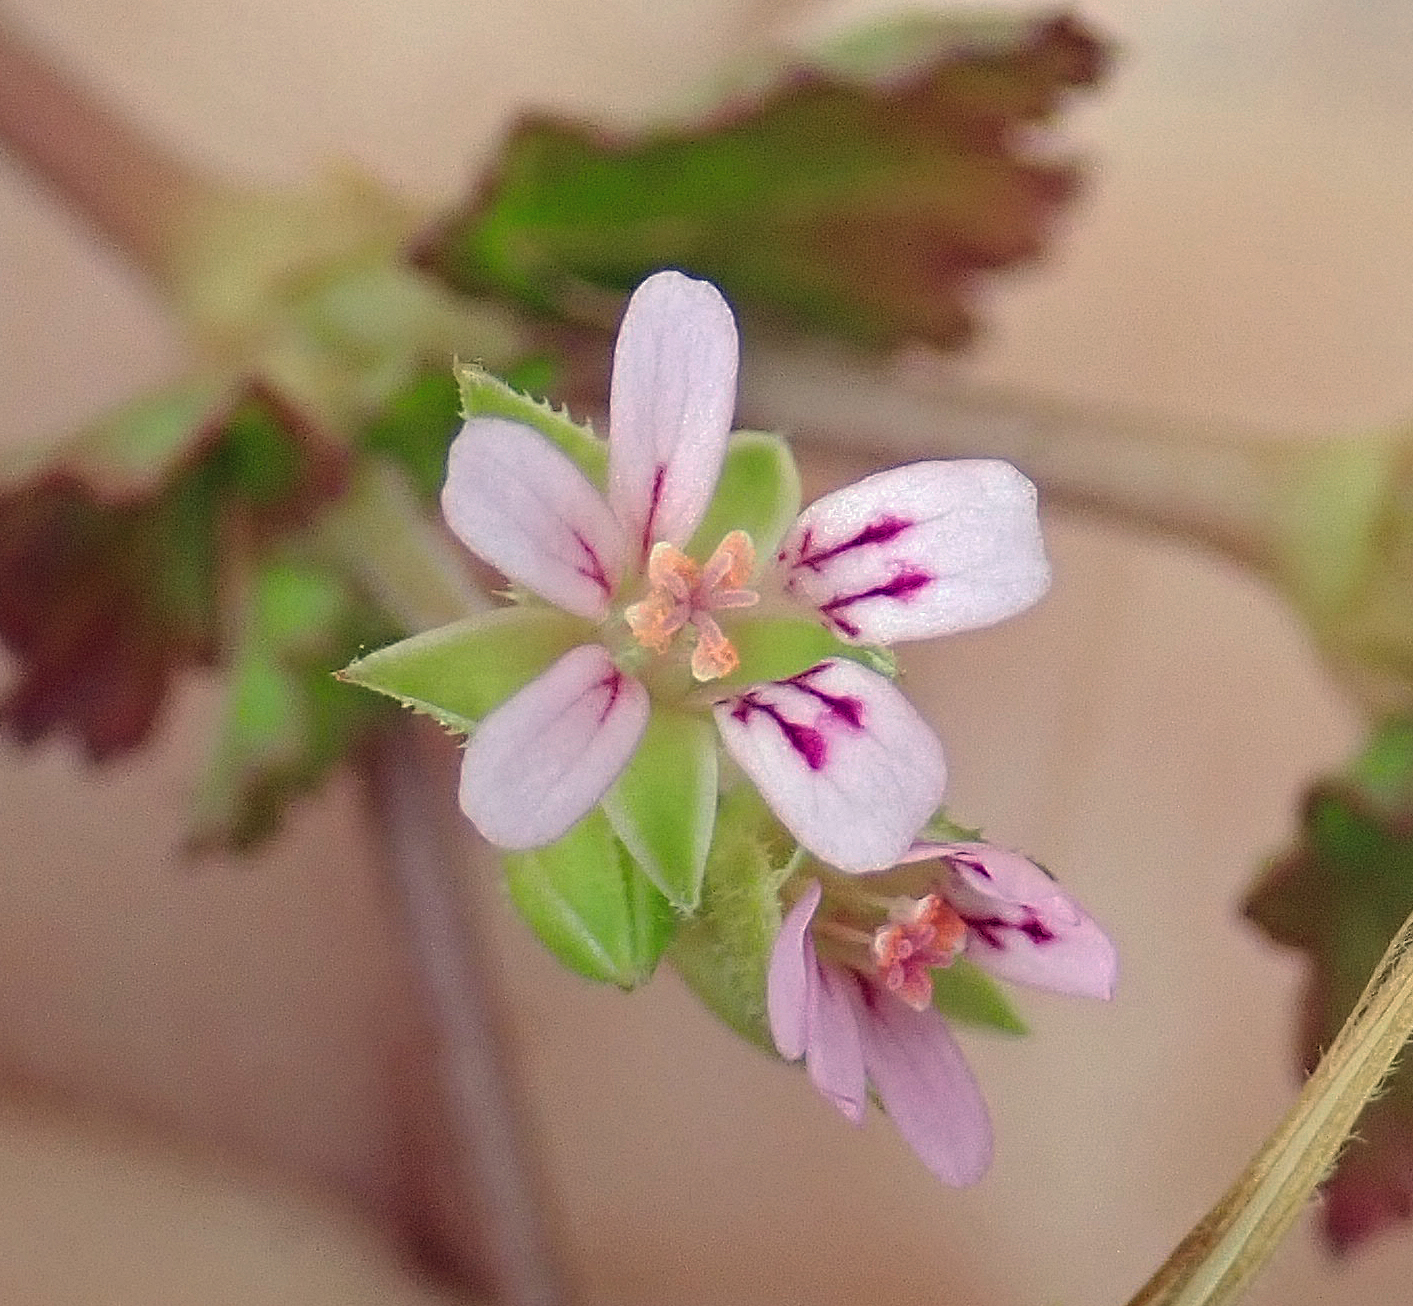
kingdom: Plantae
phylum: Tracheophyta
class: Magnoliopsida
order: Geraniales
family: Geraniaceae
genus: Pelargonium
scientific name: Pelargonium inodorum
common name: Kopata geranium
